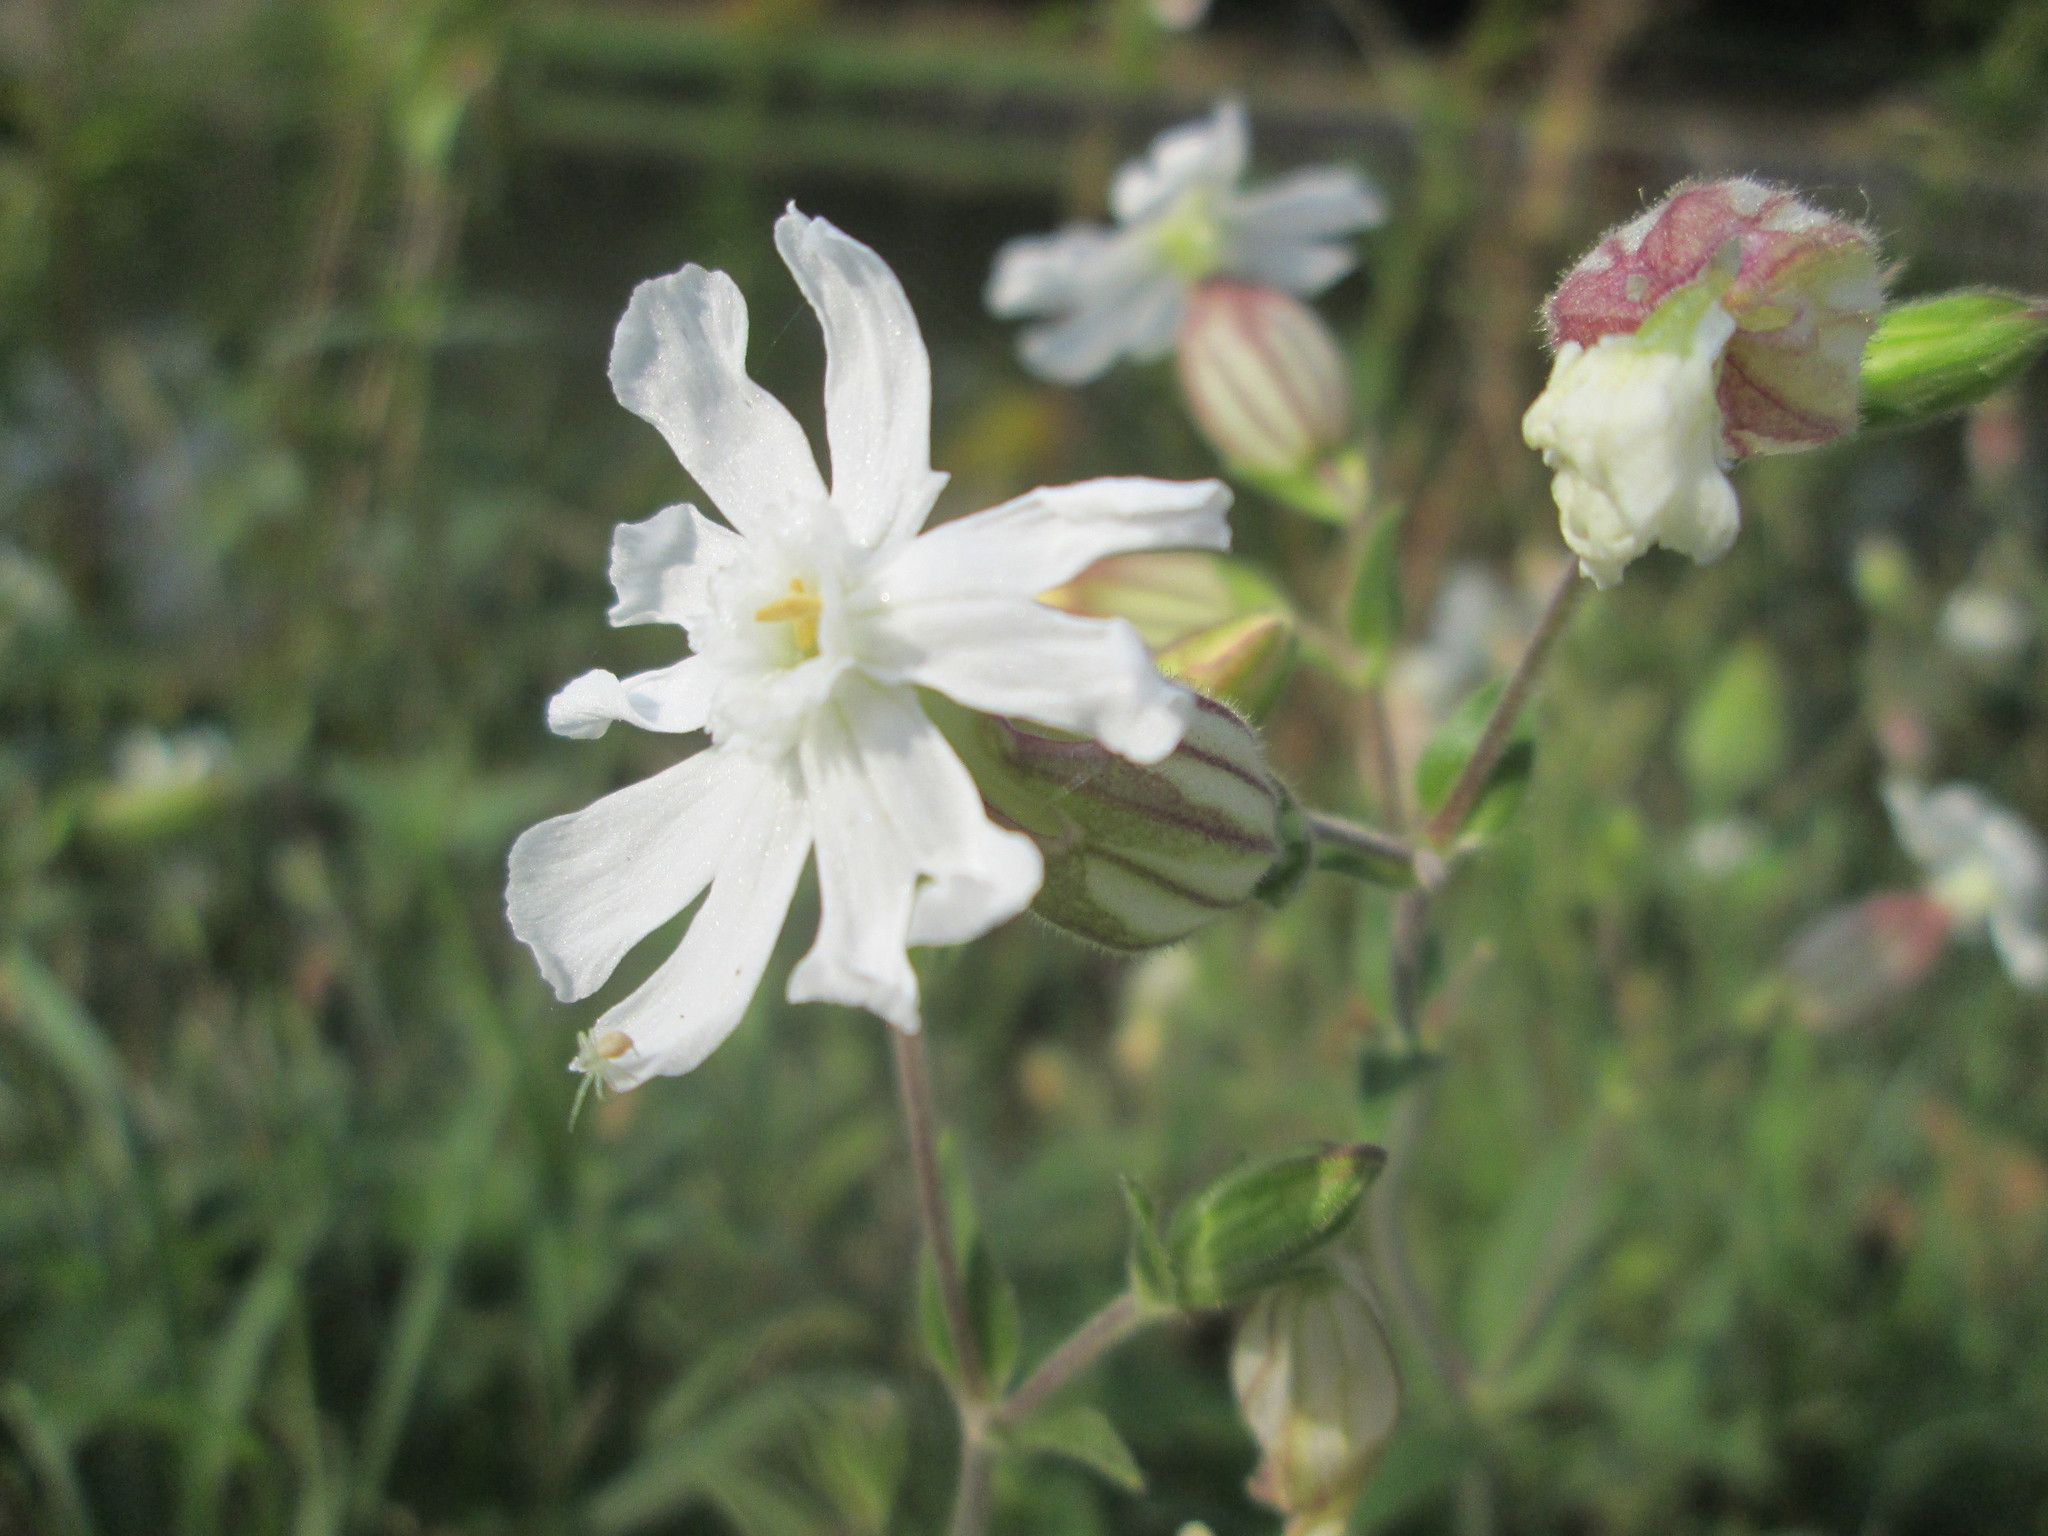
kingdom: Plantae
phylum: Tracheophyta
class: Magnoliopsida
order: Caryophyllales
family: Caryophyllaceae
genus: Silene
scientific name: Silene latifolia
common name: White campion
